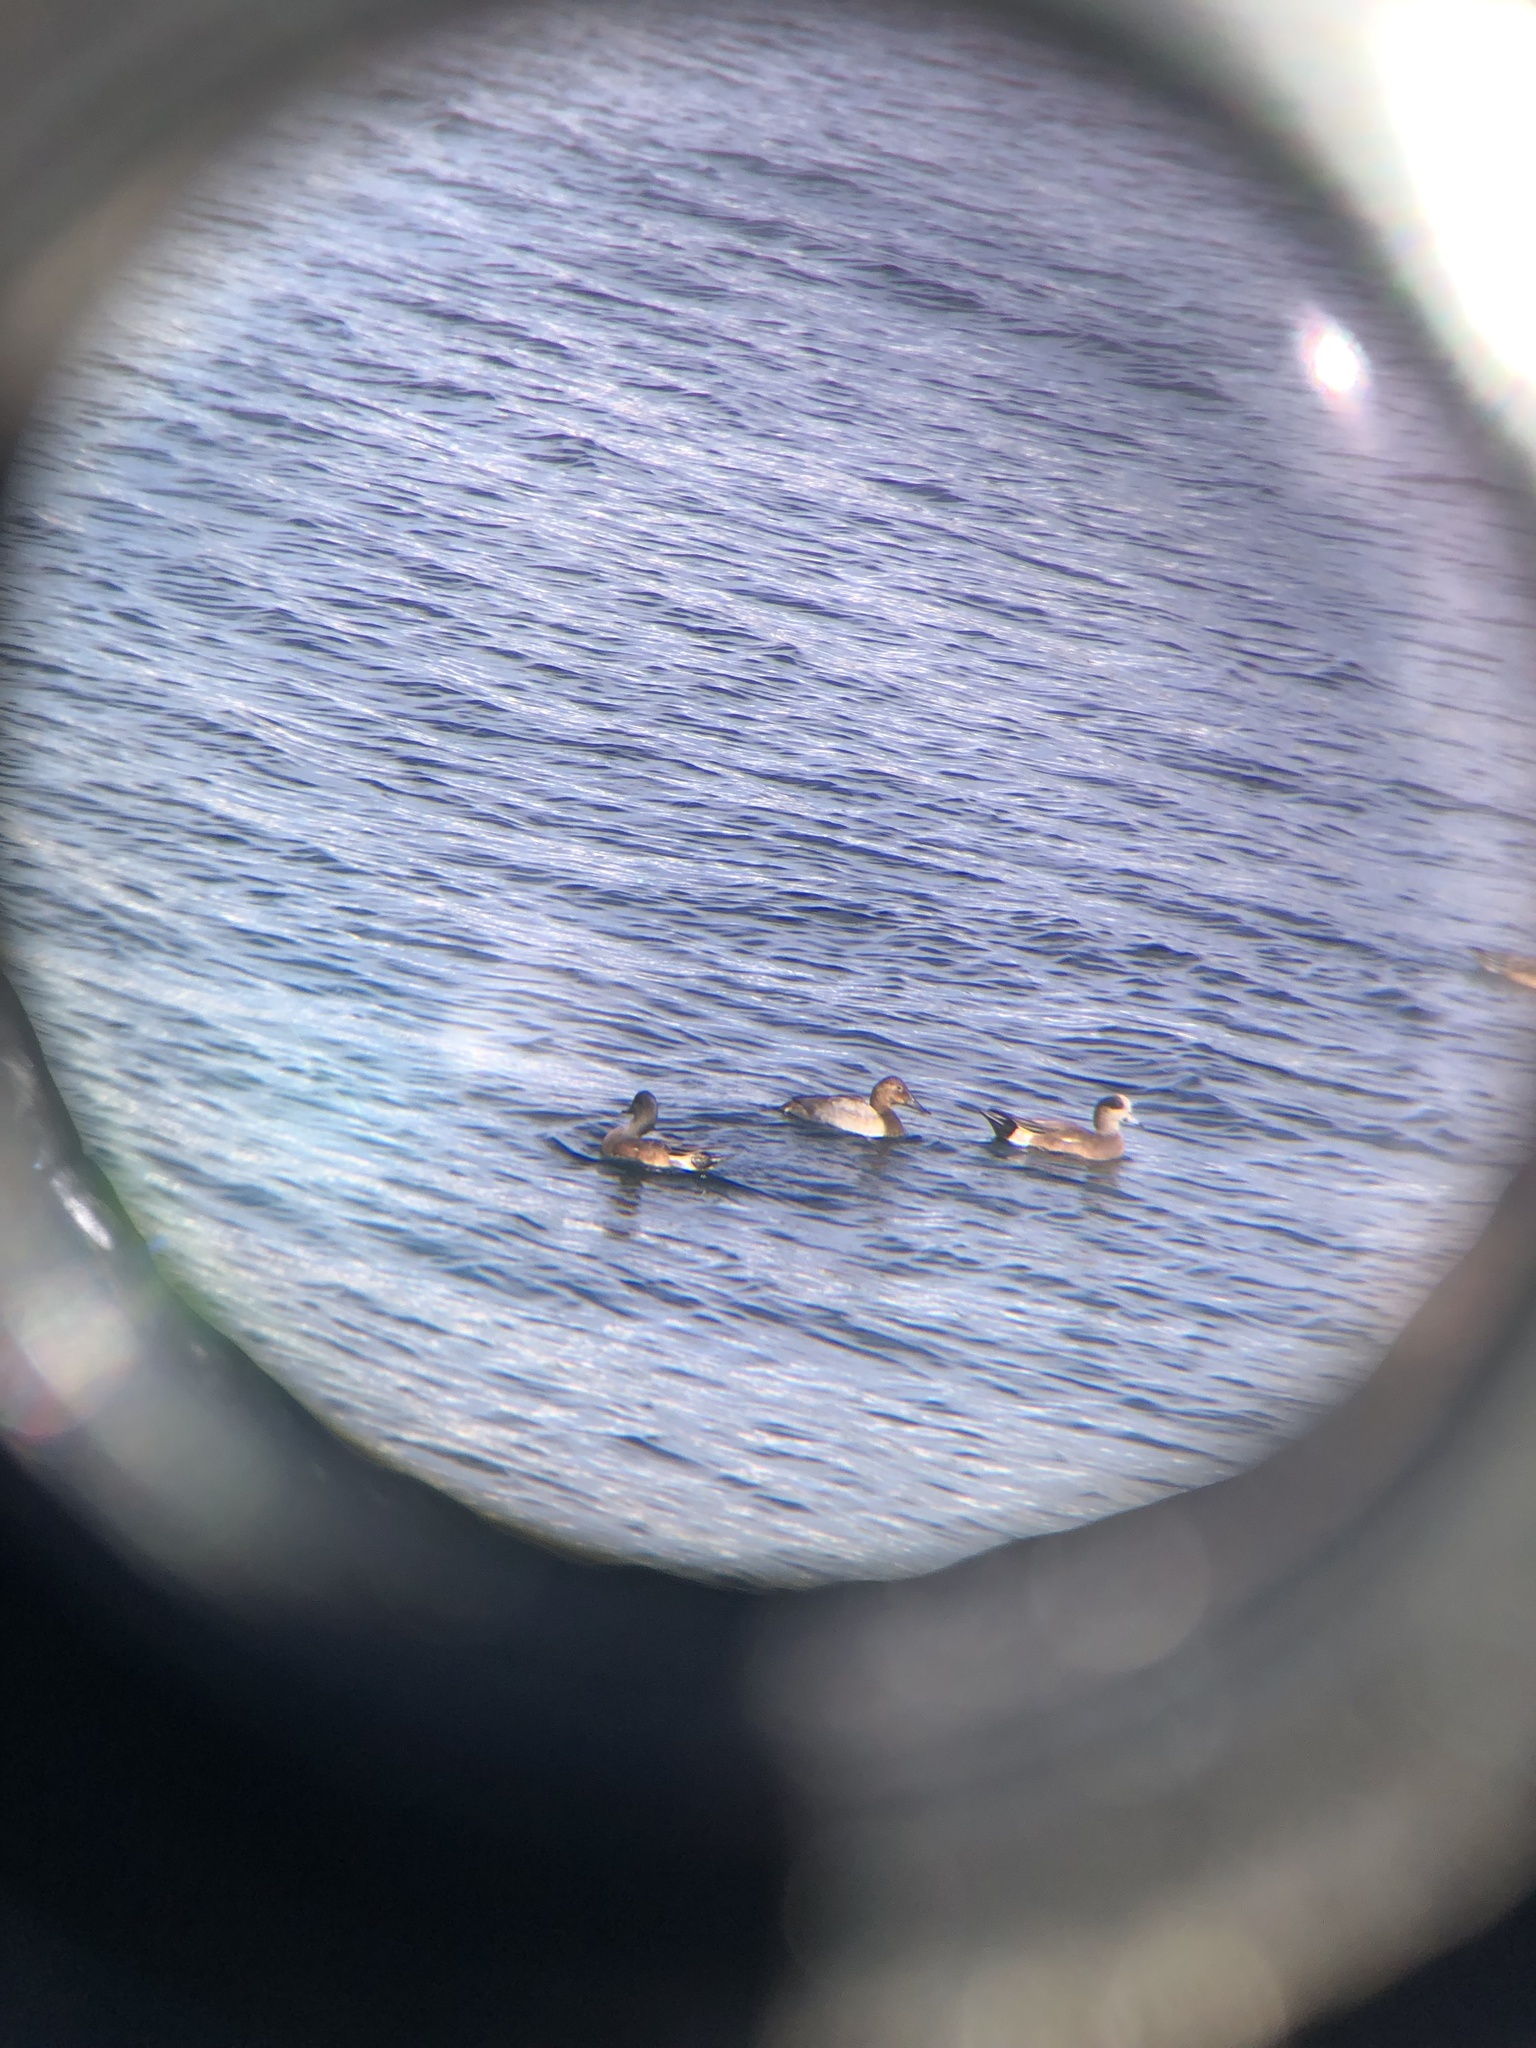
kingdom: Animalia
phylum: Chordata
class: Aves
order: Anseriformes
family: Anatidae
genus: Aythya
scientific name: Aythya valisineria
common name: Canvasback
